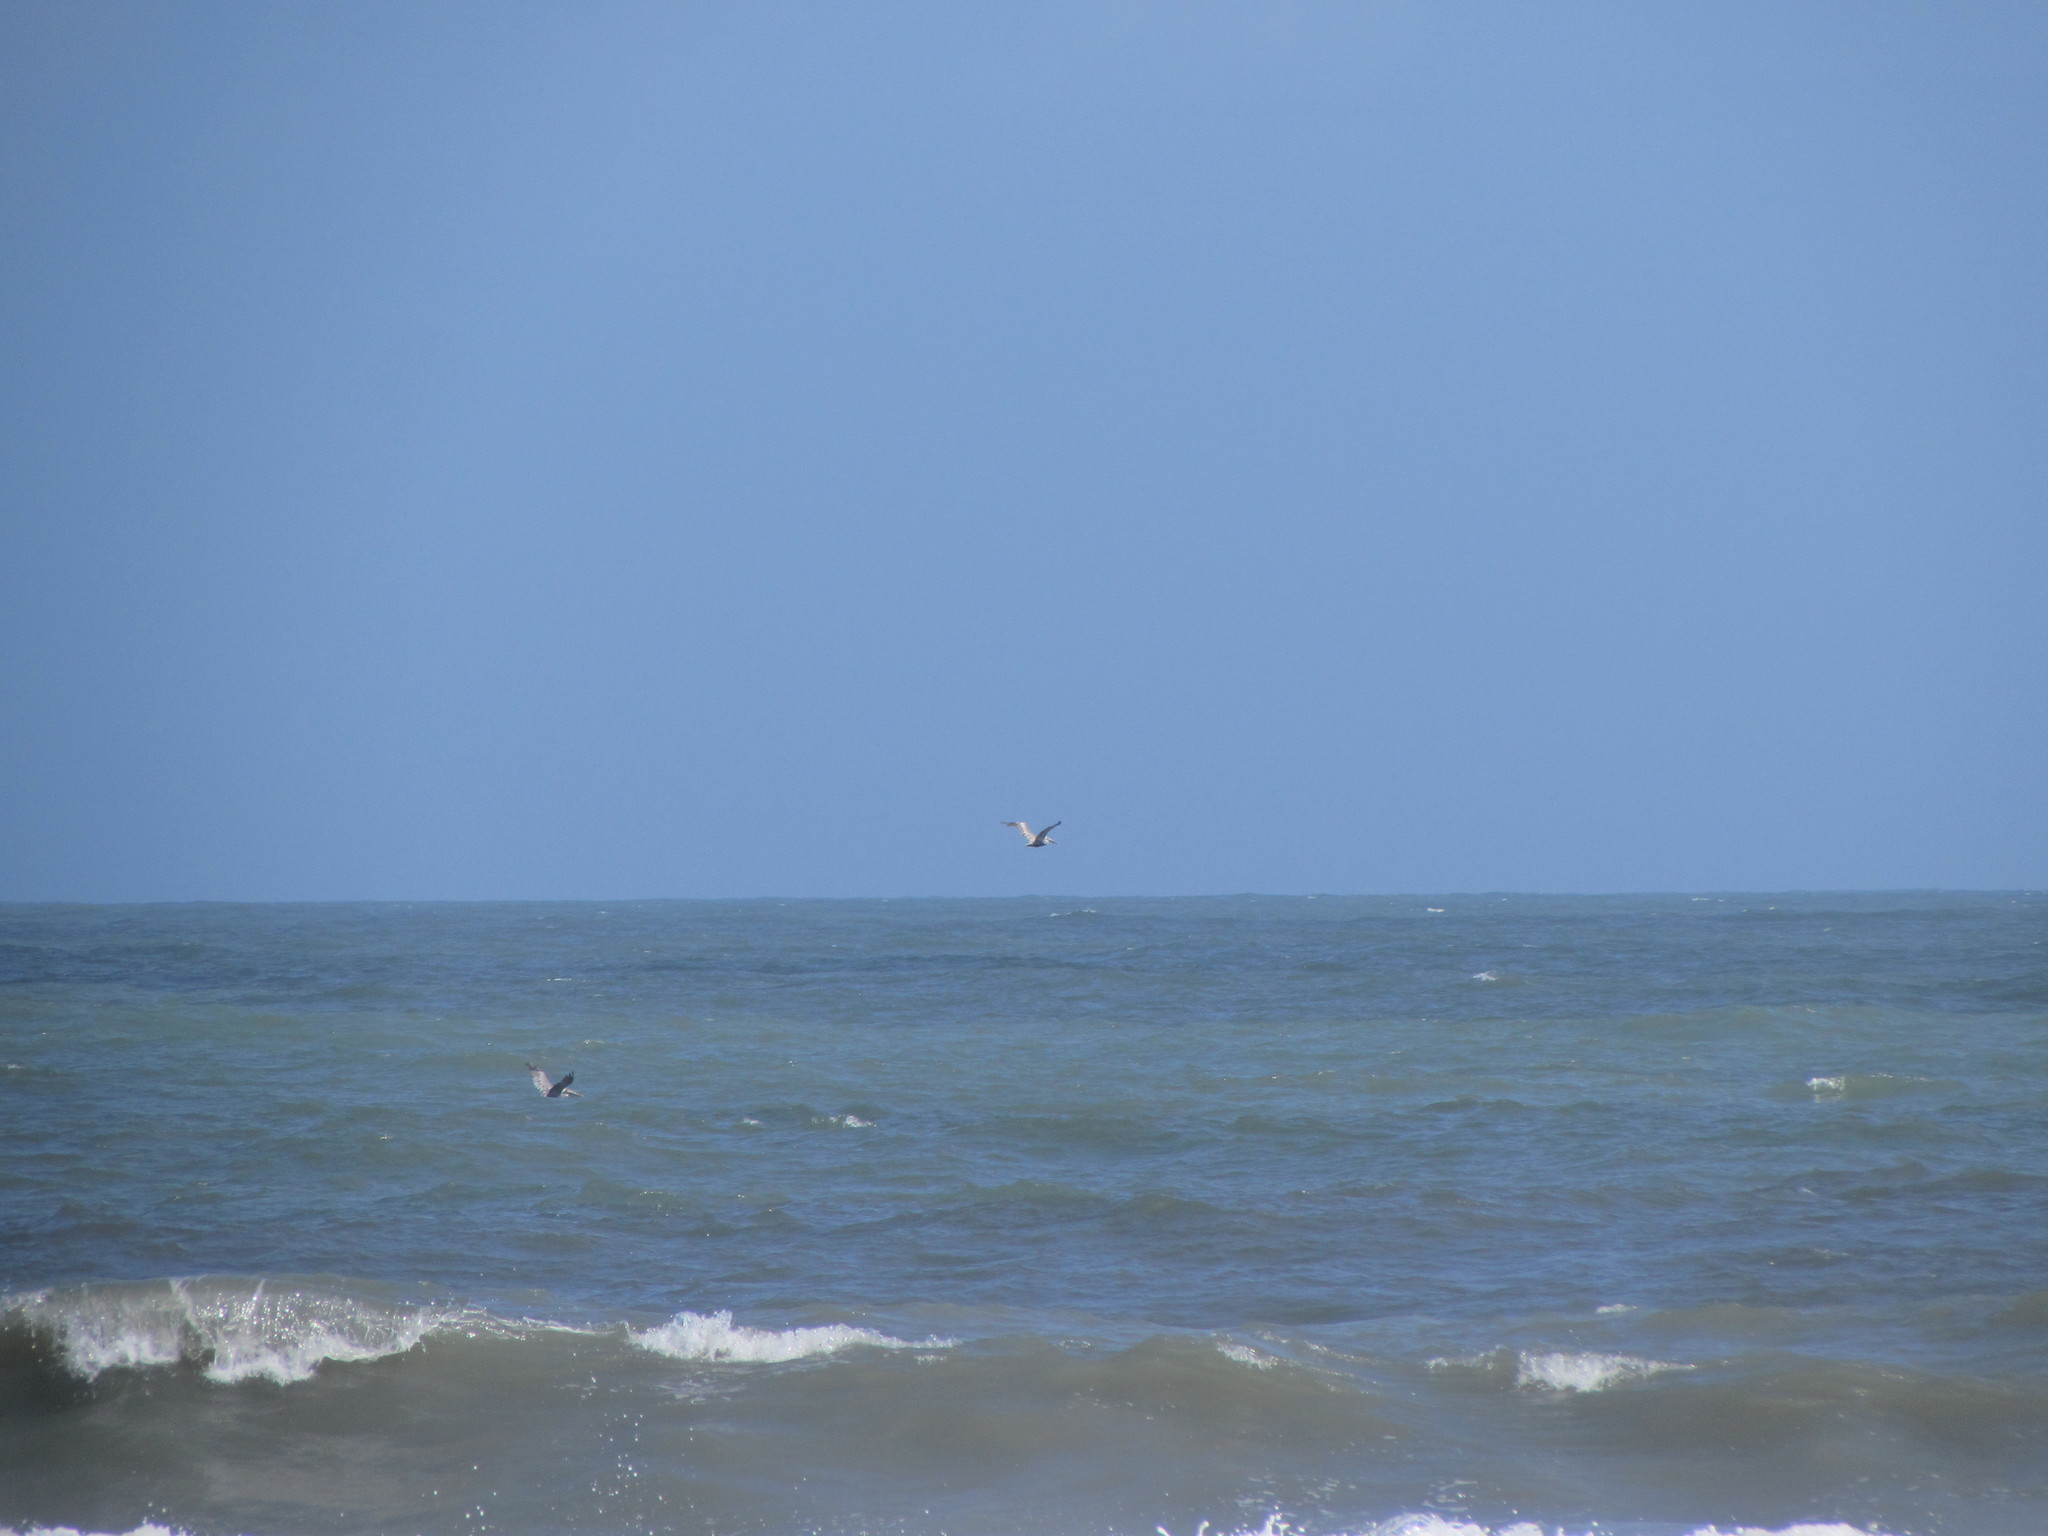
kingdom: Animalia
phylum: Chordata
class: Aves
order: Pelecaniformes
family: Pelecanidae
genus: Pelecanus
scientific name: Pelecanus occidentalis
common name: Brown pelican
